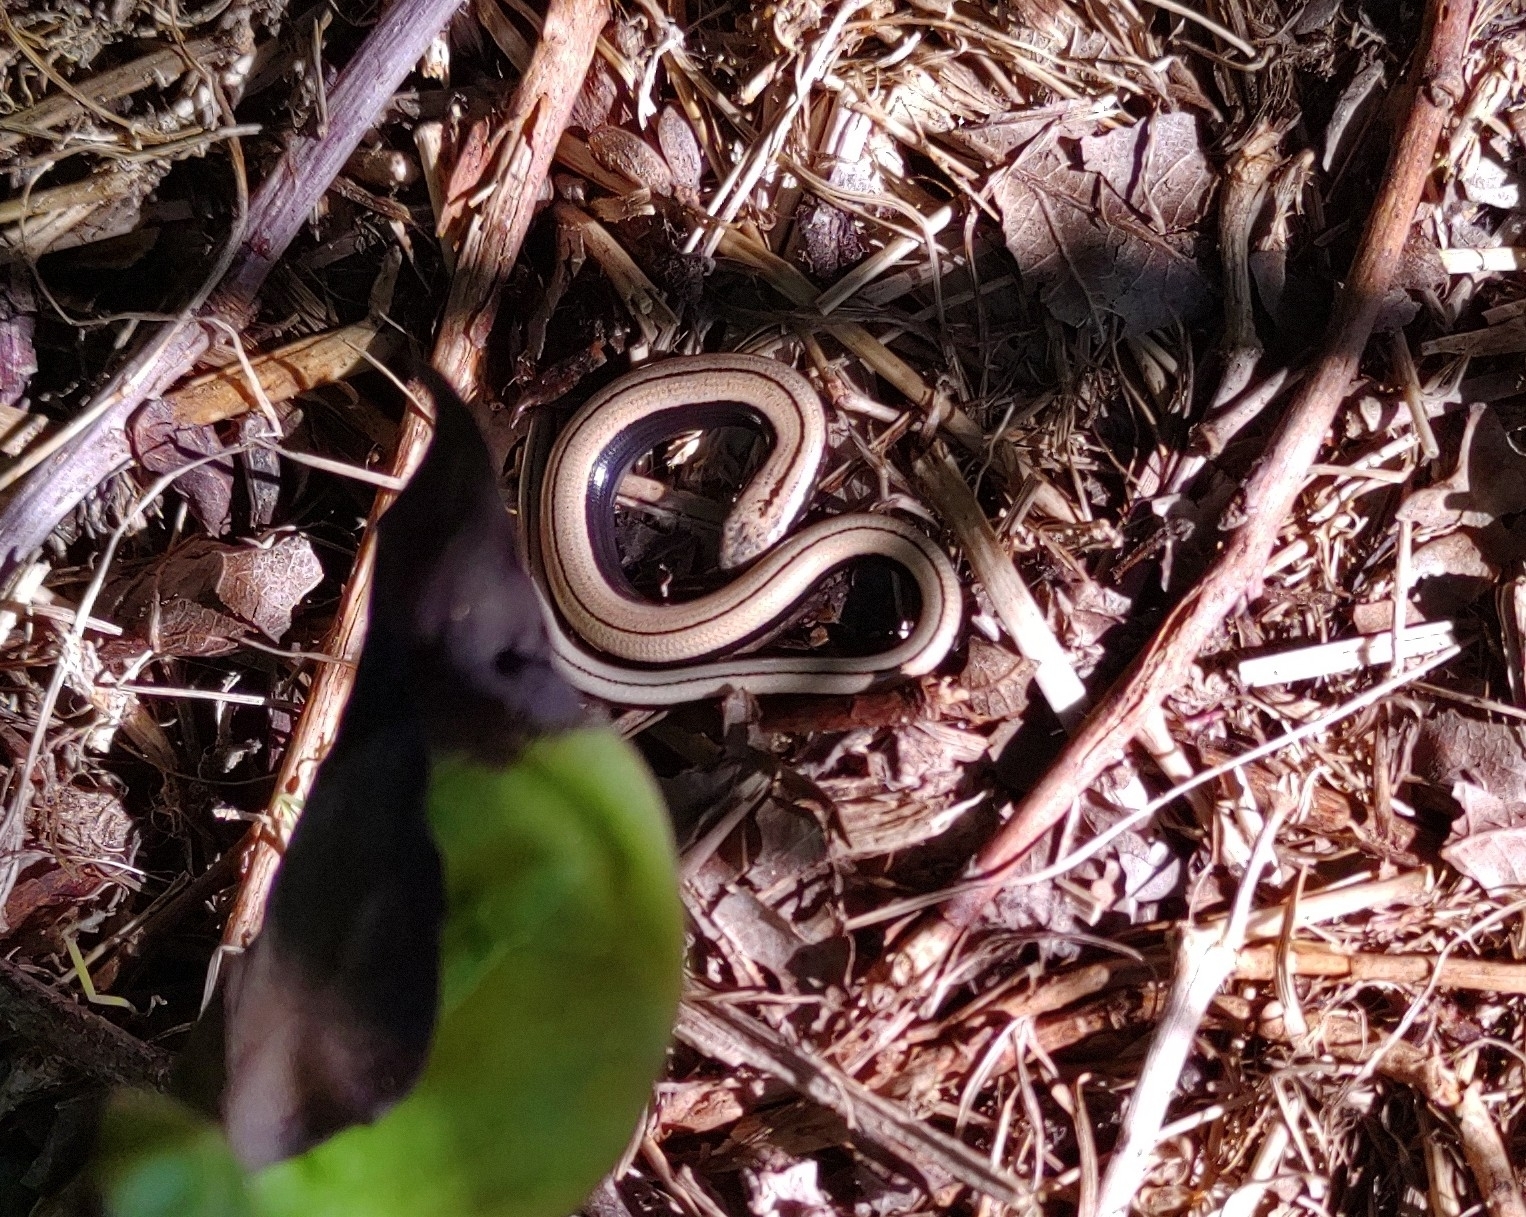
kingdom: Animalia
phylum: Chordata
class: Squamata
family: Anguidae
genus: Anguis
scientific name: Anguis fragilis
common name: Slow worm
